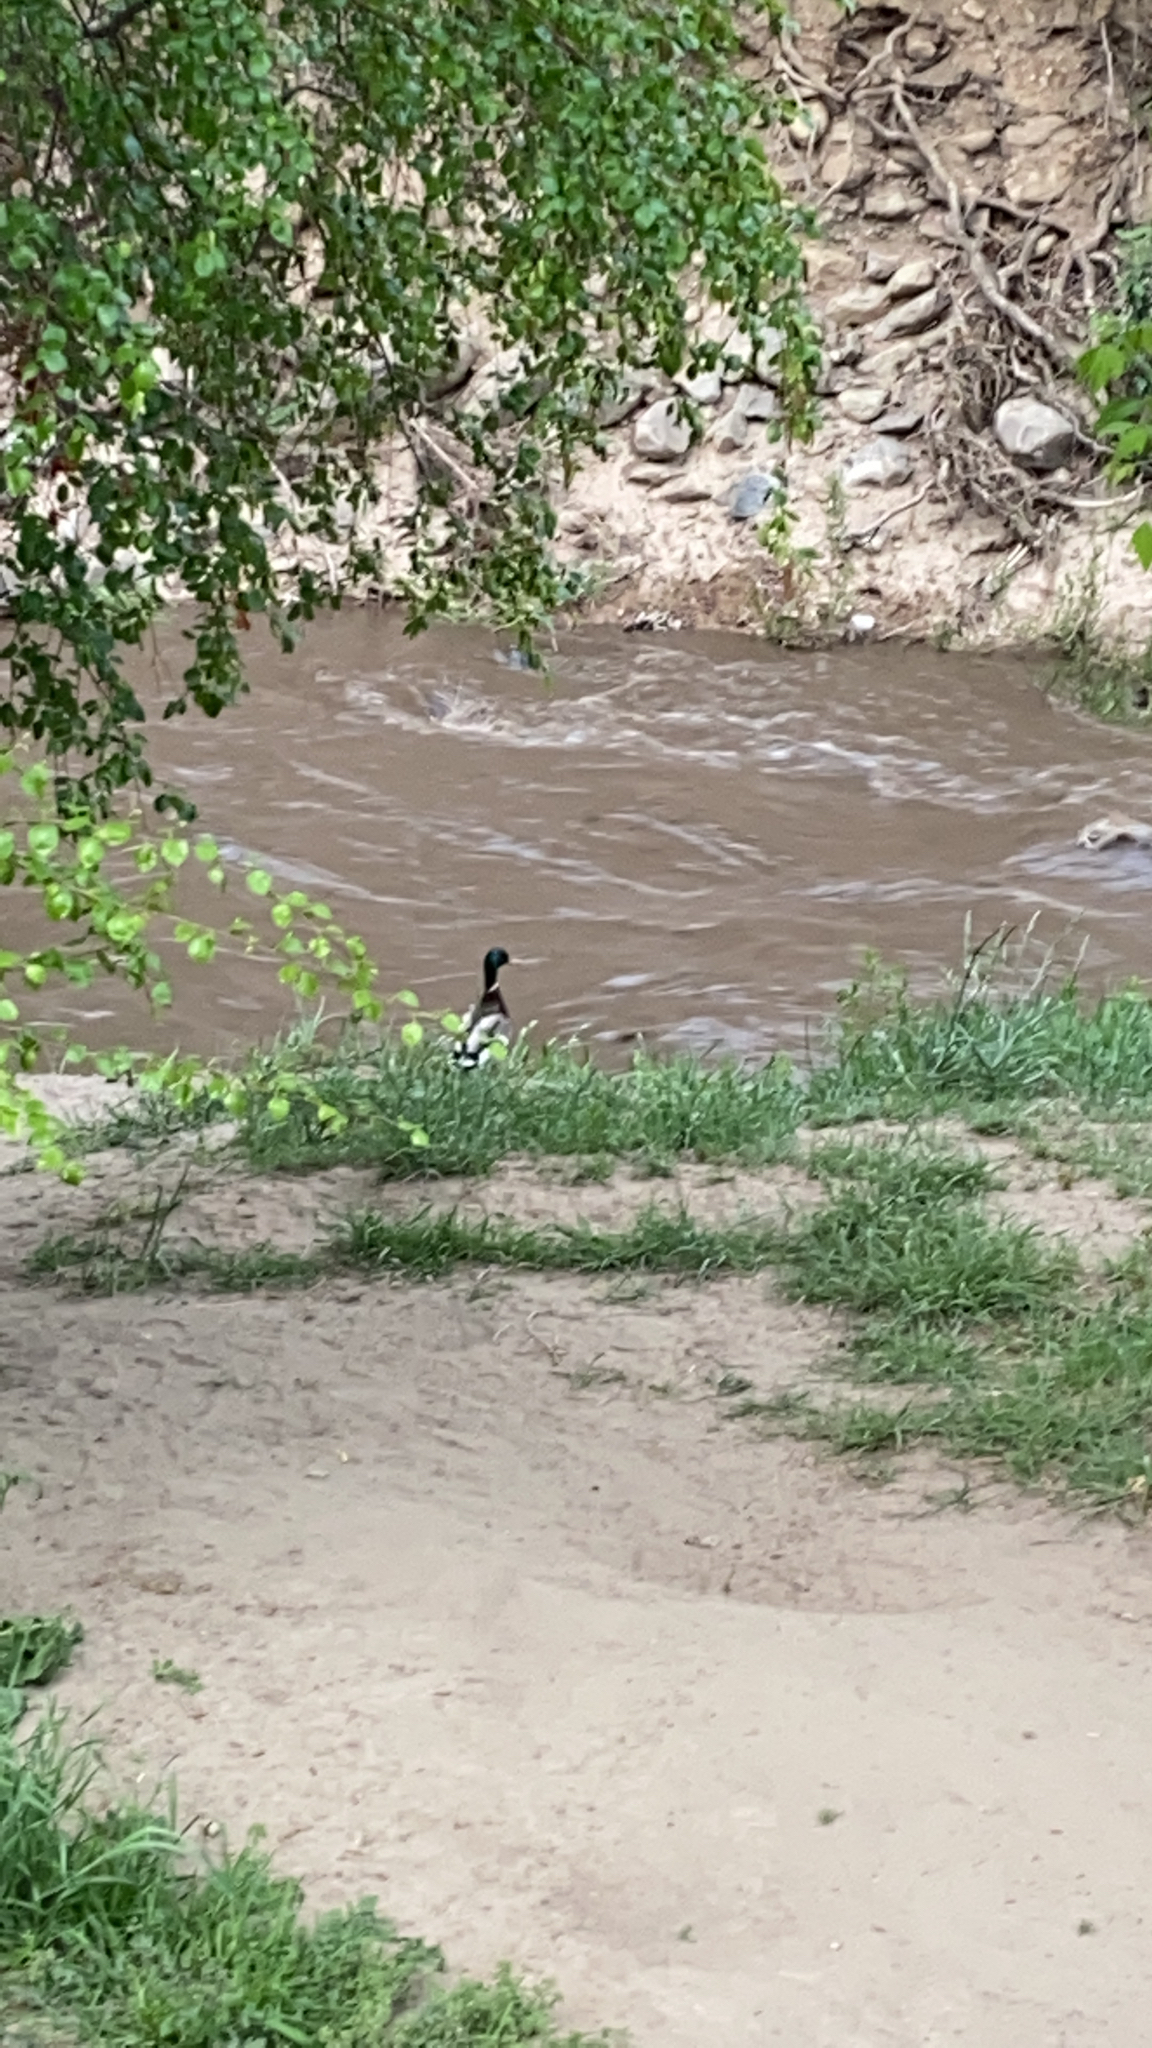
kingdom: Animalia
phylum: Chordata
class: Aves
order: Anseriformes
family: Anatidae
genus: Anas
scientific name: Anas platyrhynchos
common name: Mallard
